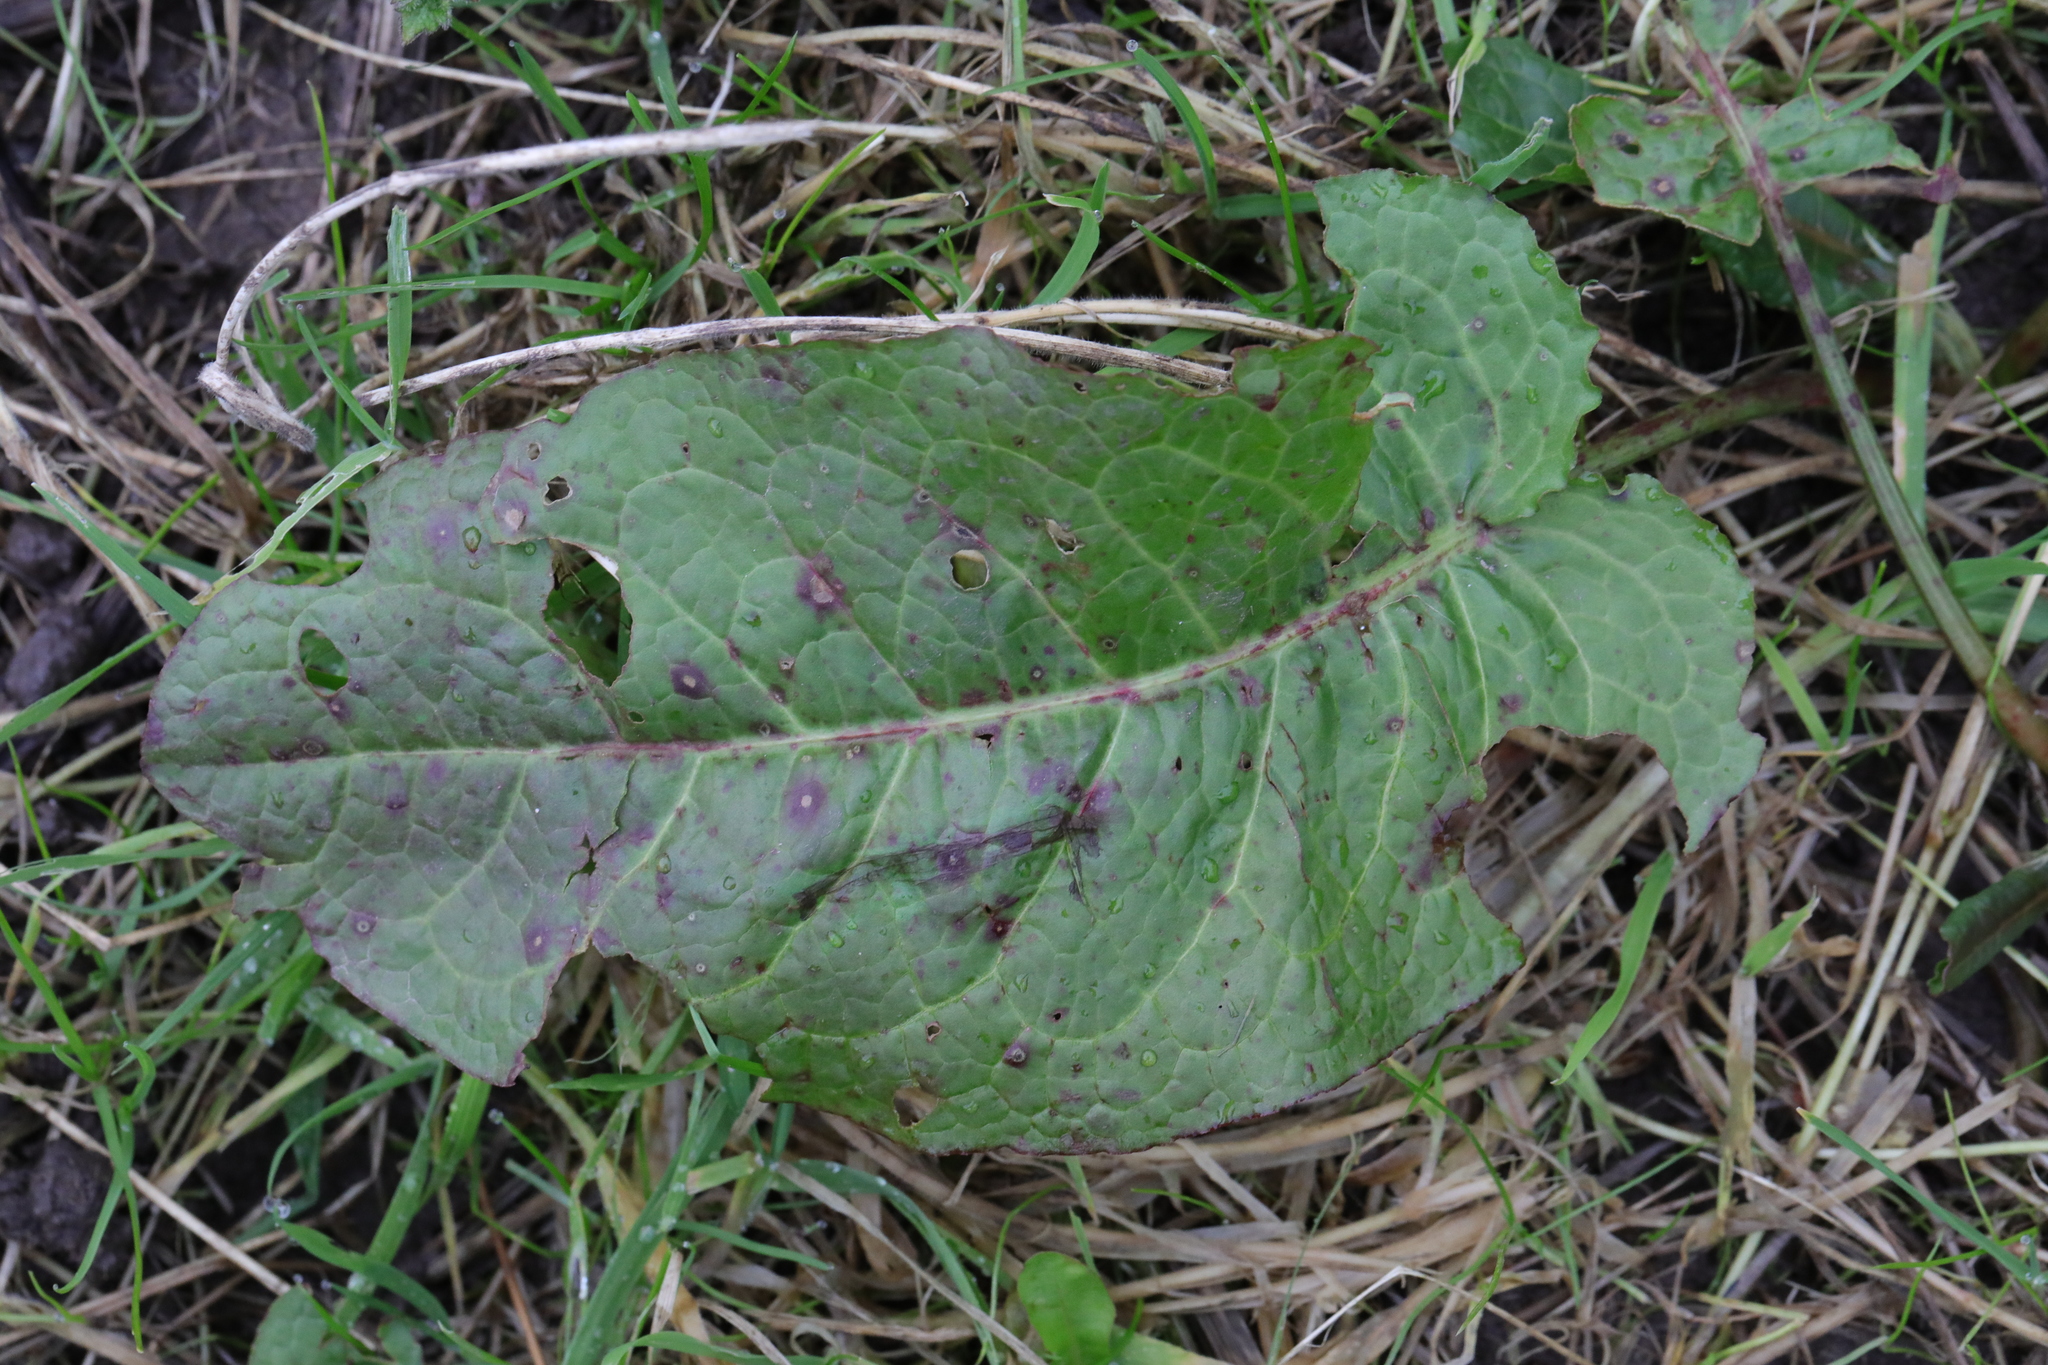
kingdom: Plantae
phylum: Tracheophyta
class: Magnoliopsida
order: Caryophyllales
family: Polygonaceae
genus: Rumex
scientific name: Rumex obtusifolius
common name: Bitter dock
